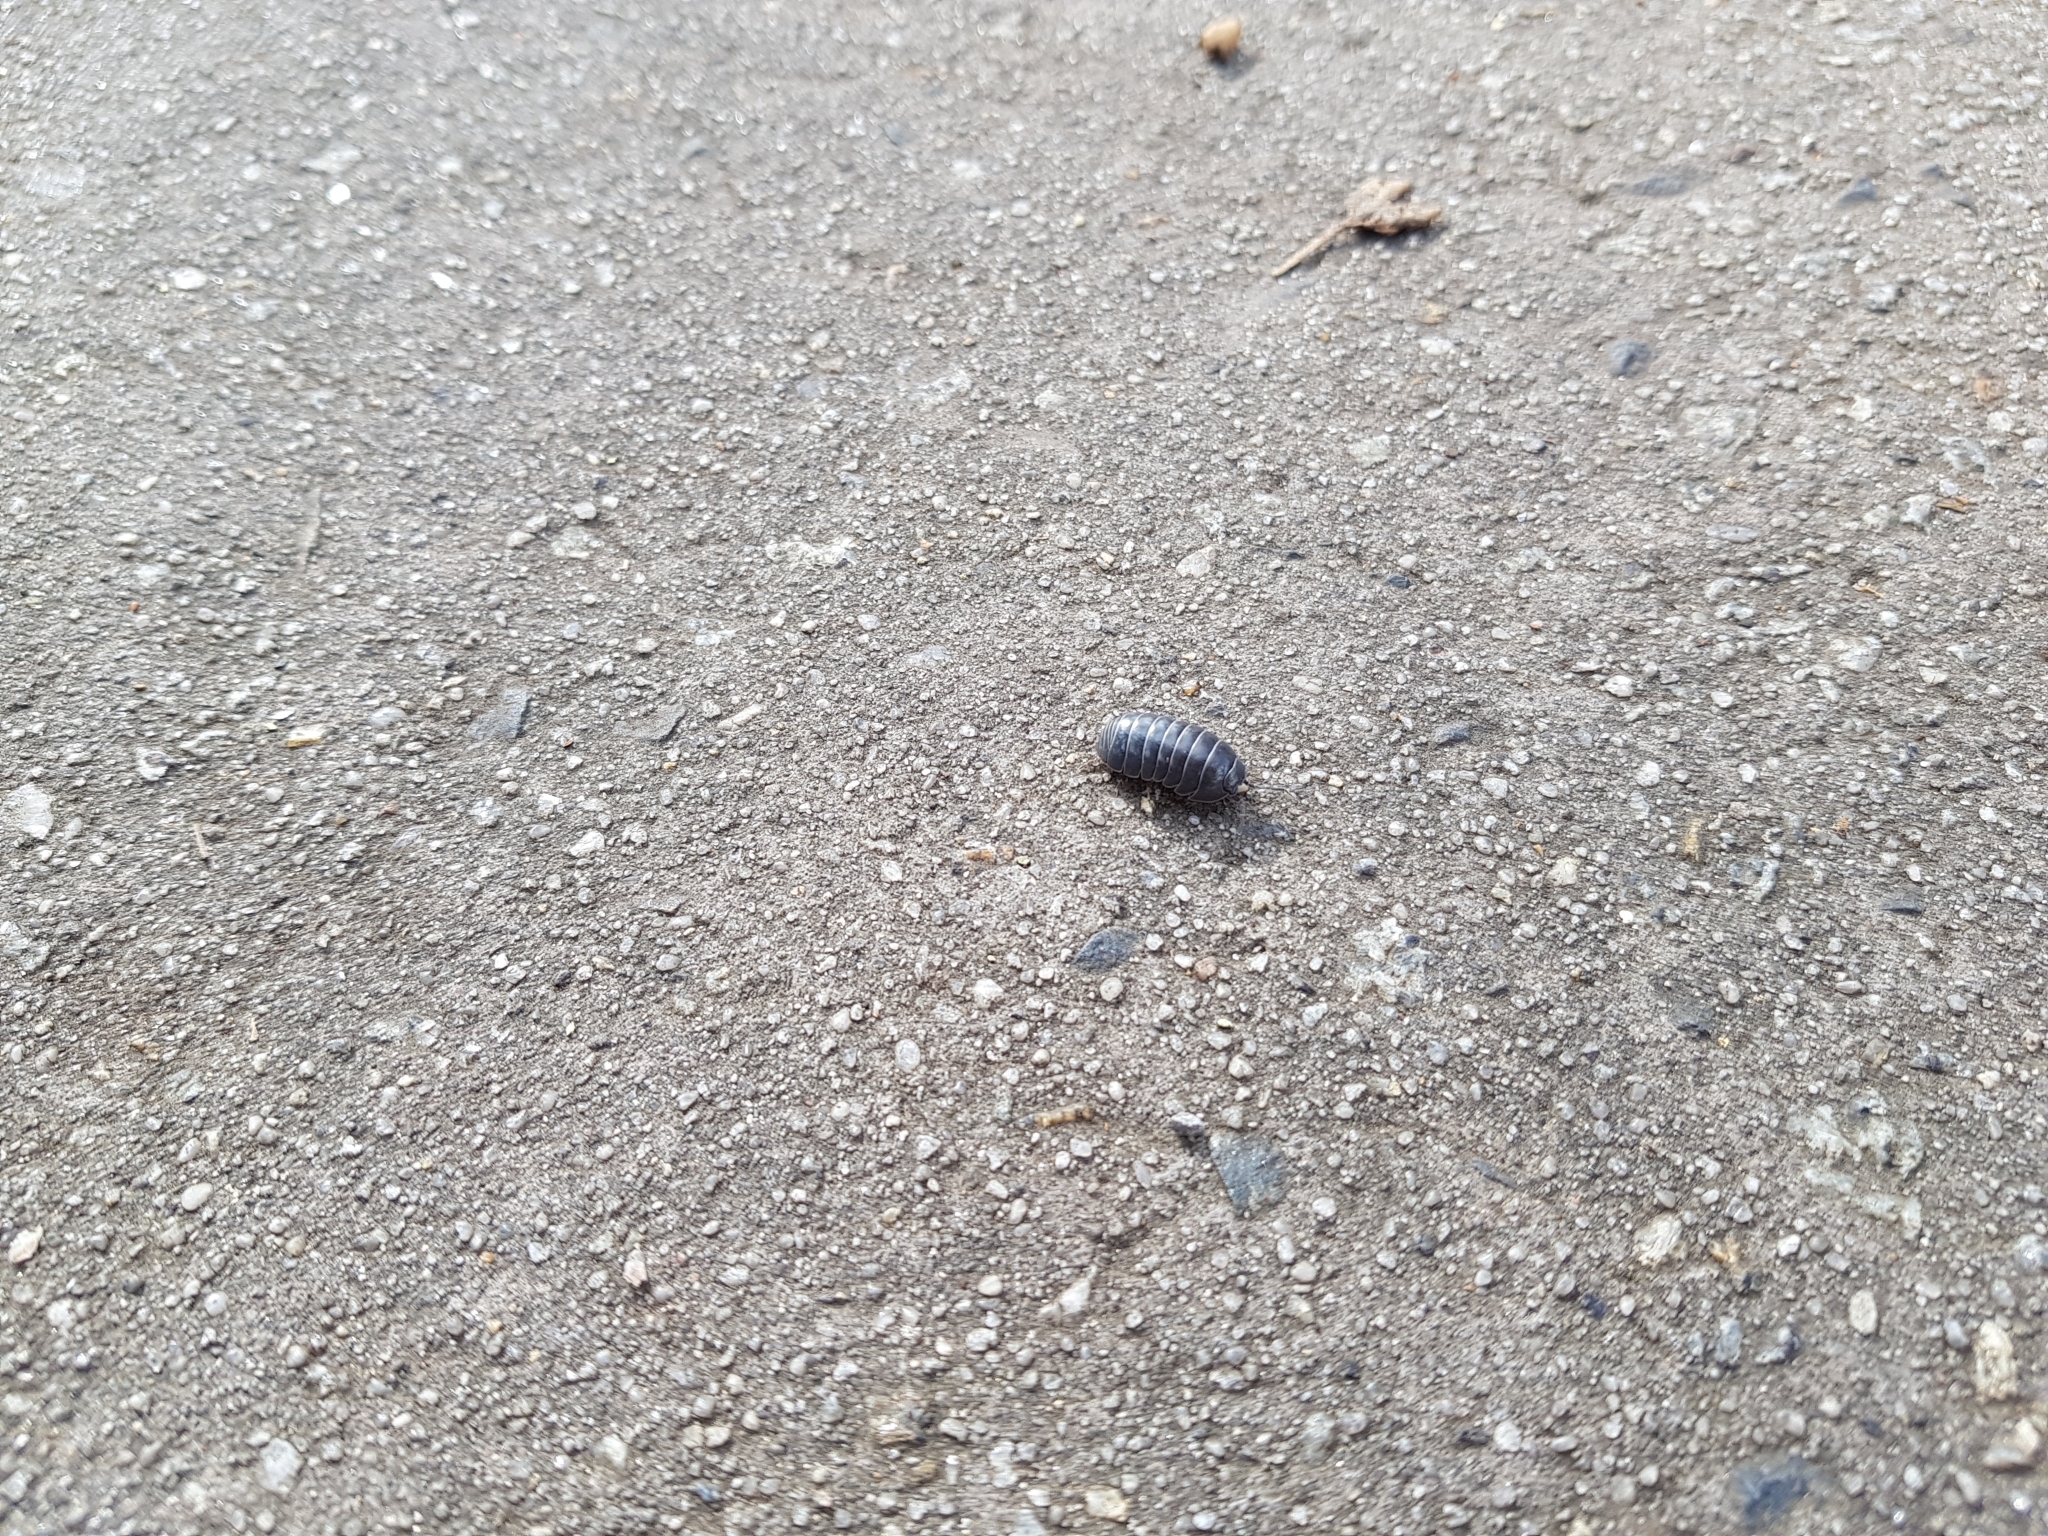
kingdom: Animalia
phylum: Arthropoda
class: Malacostraca
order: Isopoda
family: Armadillidiidae
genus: Armadillidium
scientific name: Armadillidium vulgare
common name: Common pill woodlouse
